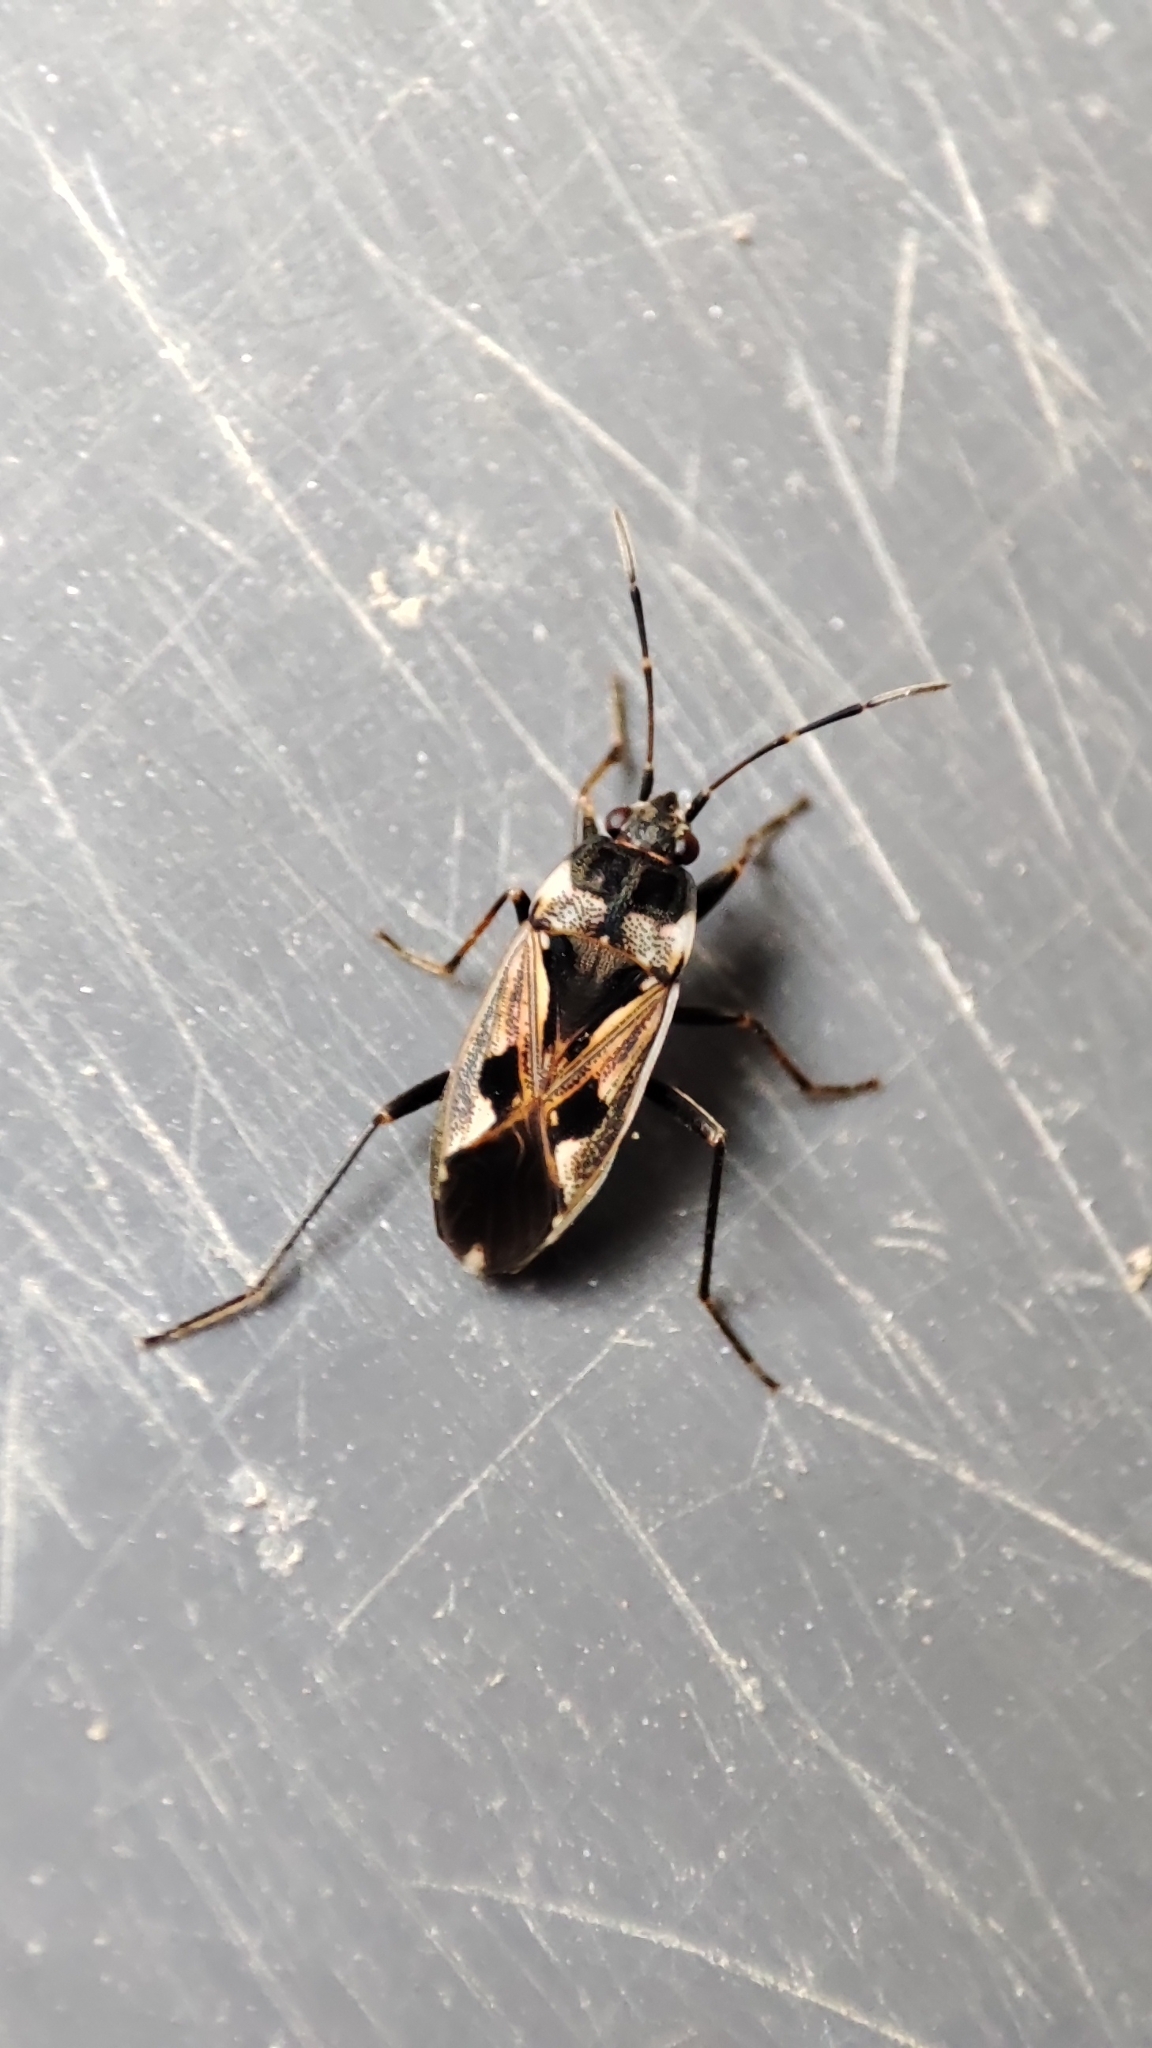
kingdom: Animalia
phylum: Arthropoda
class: Insecta
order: Hemiptera
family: Rhyparochromidae
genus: Rhyparochromus
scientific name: Rhyparochromus vulgaris
